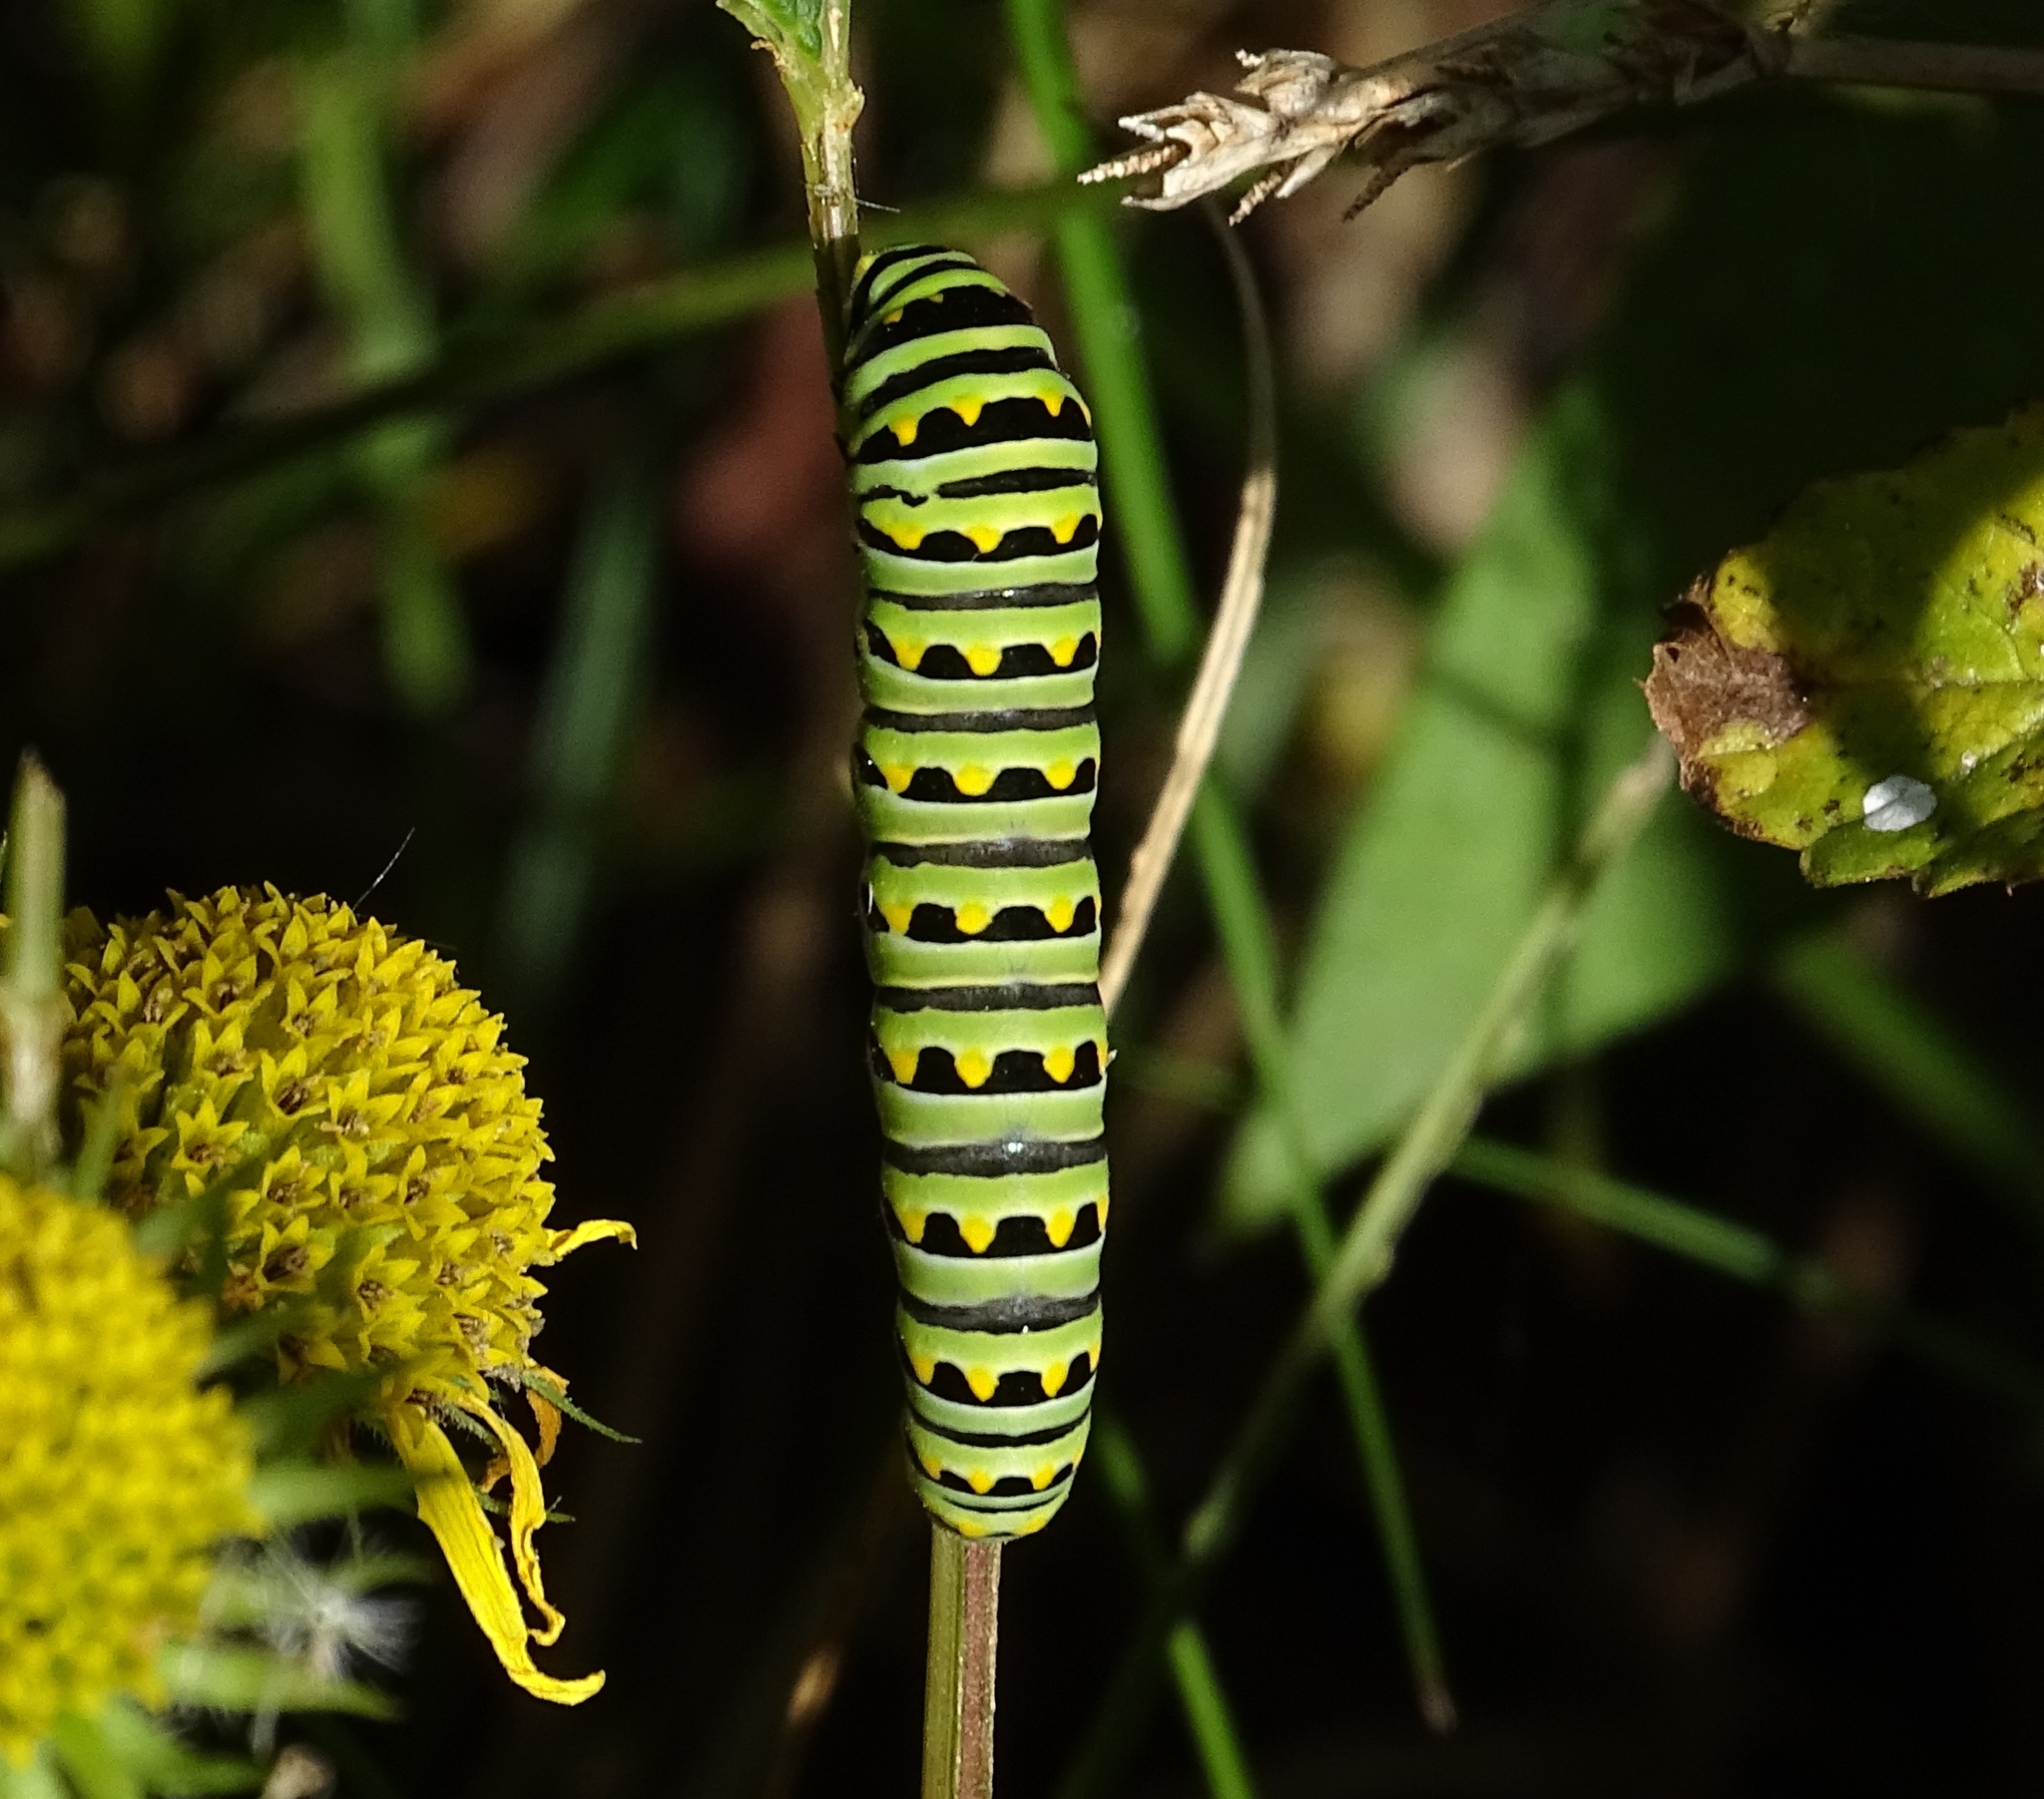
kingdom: Animalia
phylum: Arthropoda
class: Insecta
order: Lepidoptera
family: Papilionidae
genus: Papilio
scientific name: Papilio polyxenes
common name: Black swallowtail
